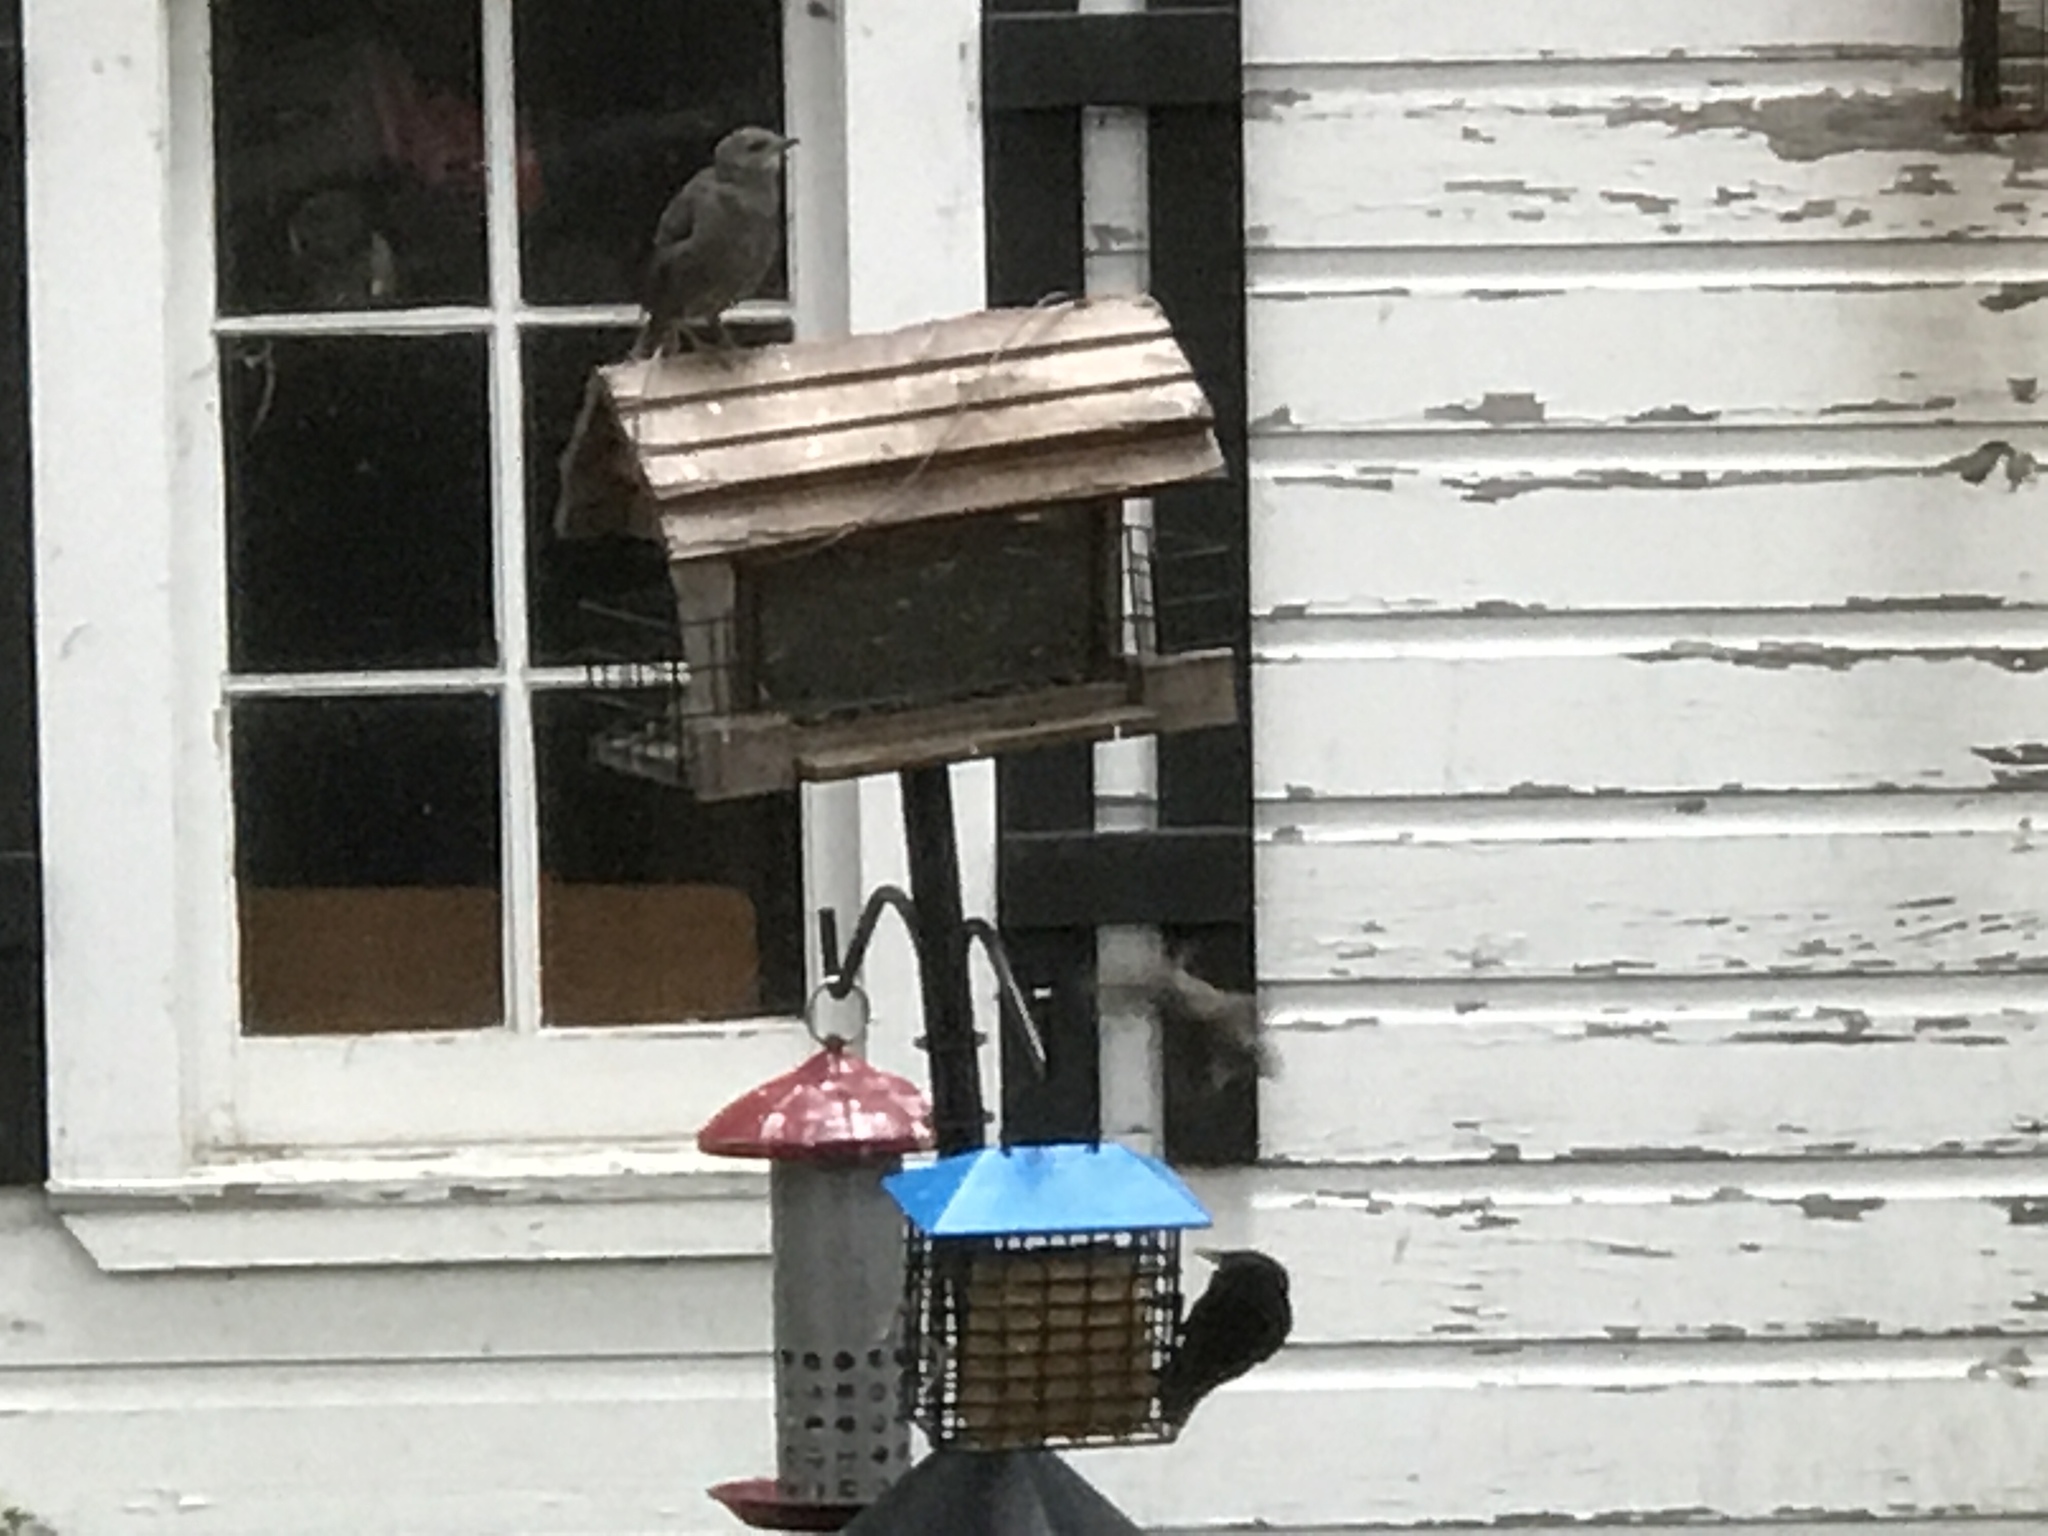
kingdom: Animalia
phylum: Chordata
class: Aves
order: Passeriformes
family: Sturnidae
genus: Sturnus
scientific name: Sturnus vulgaris
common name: Common starling
